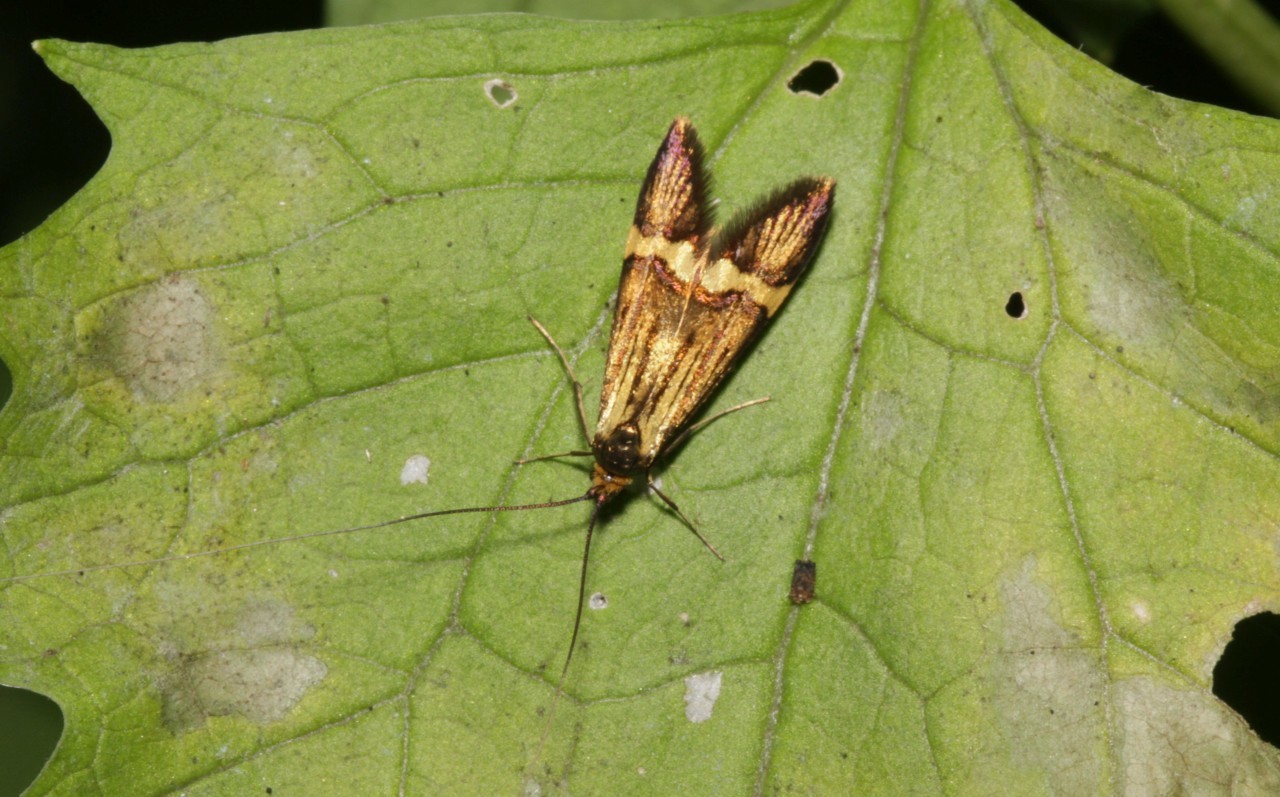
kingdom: Animalia
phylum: Arthropoda
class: Insecta
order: Lepidoptera
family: Adelidae
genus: Nemophora
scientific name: Nemophora degeerella
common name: Yellow-barred long-horn
